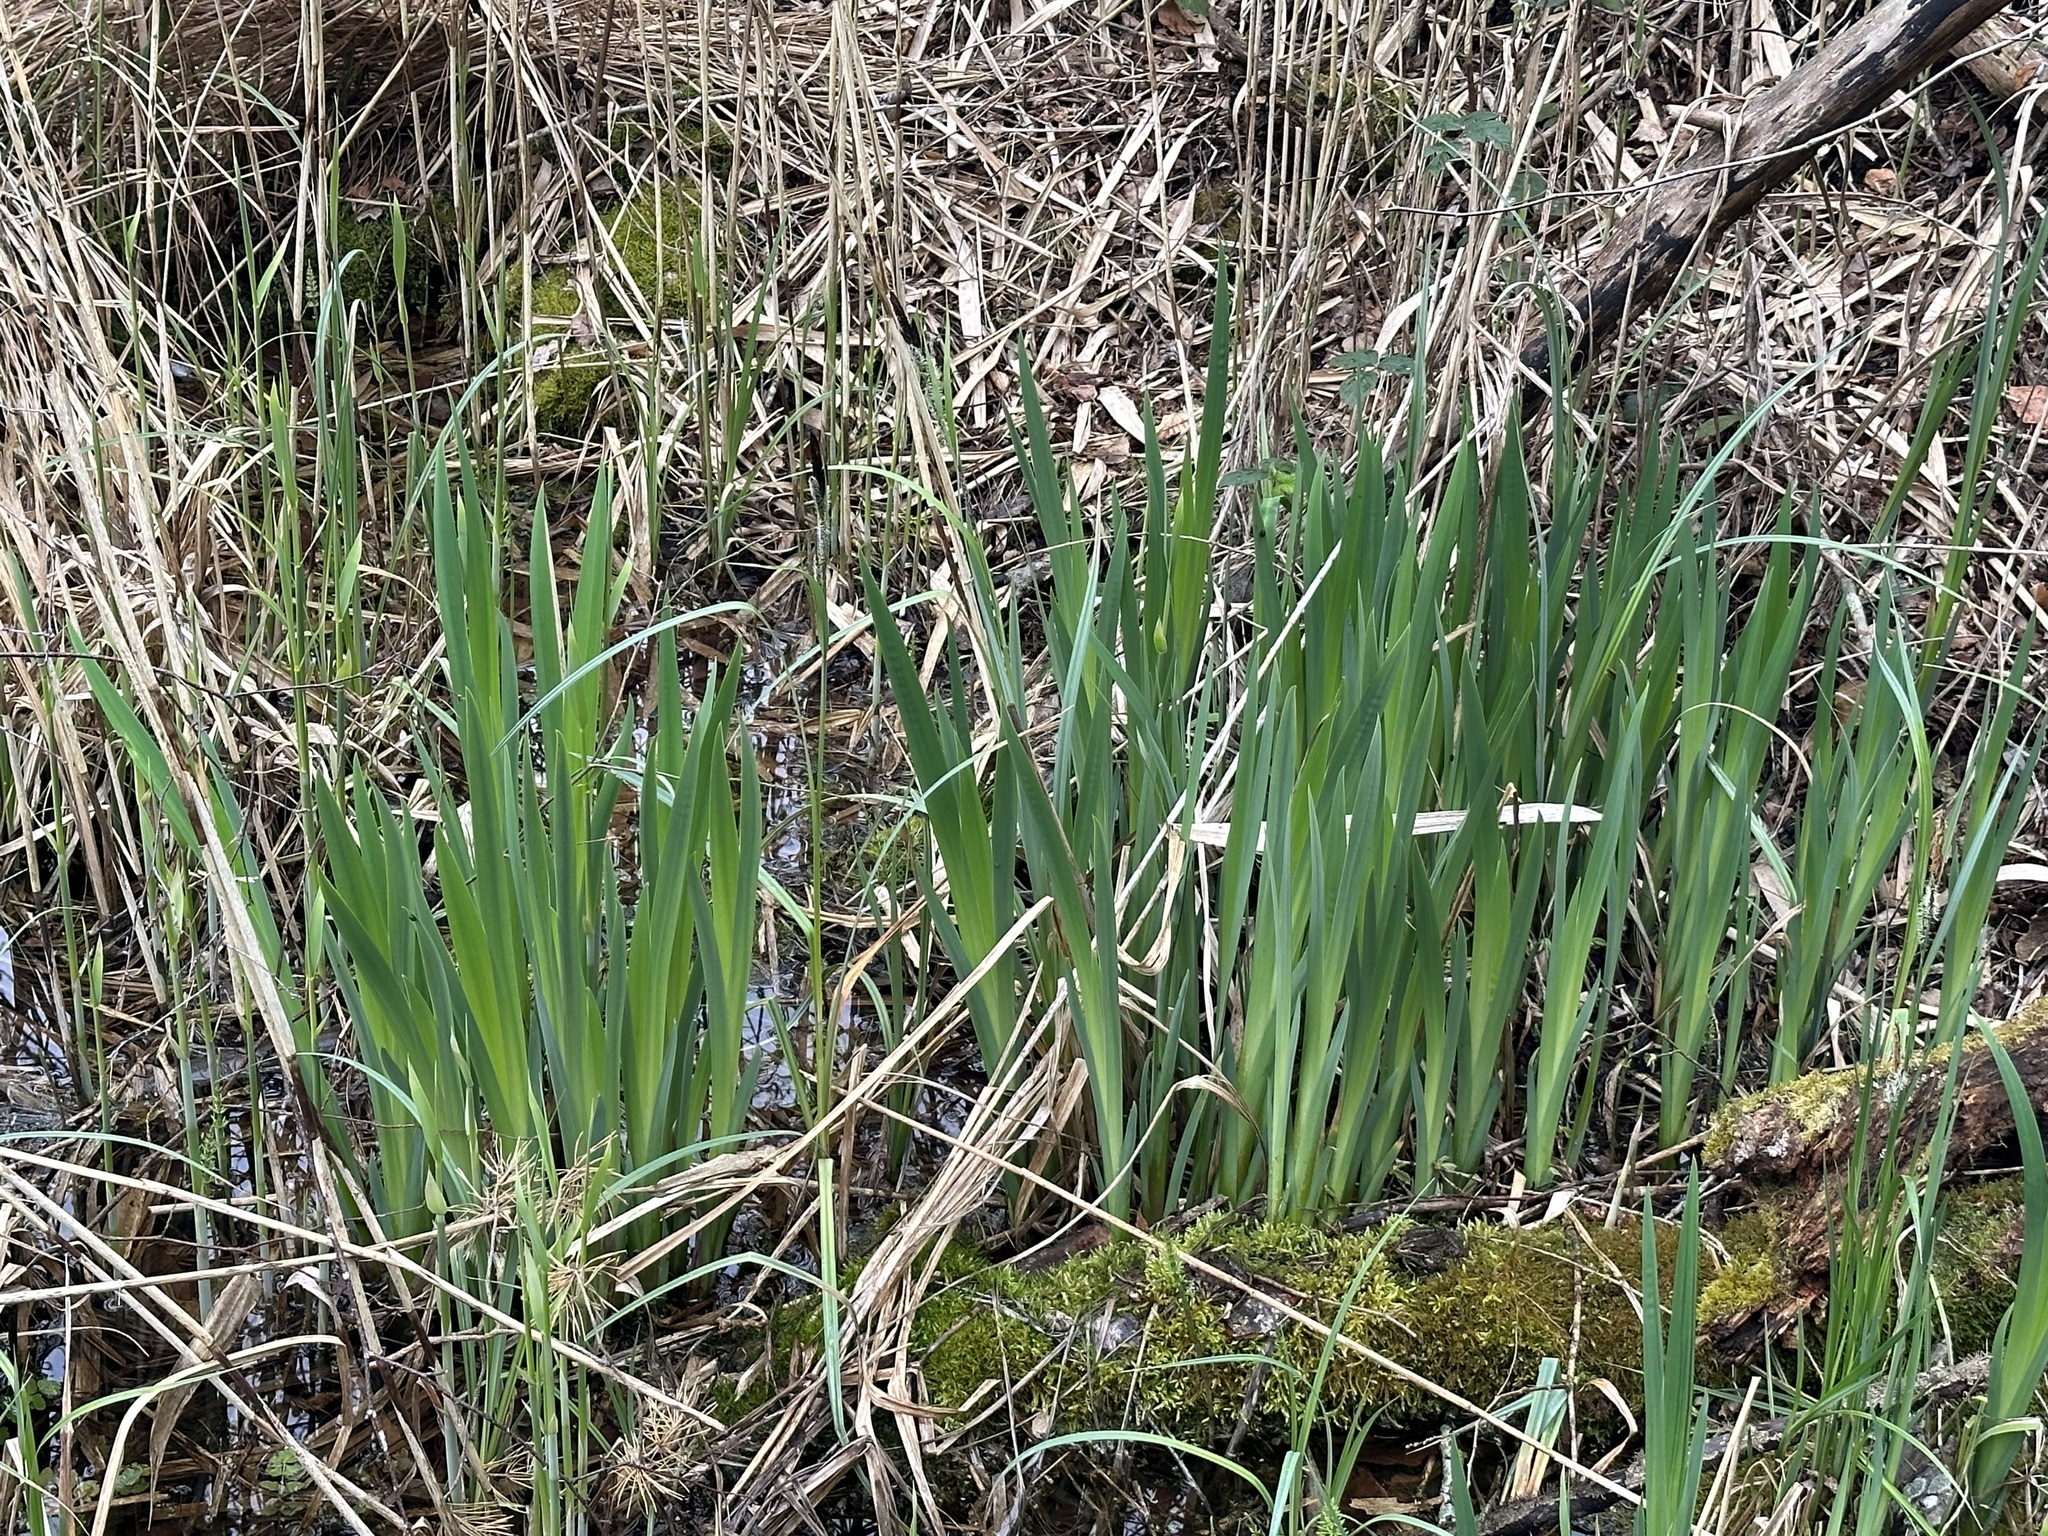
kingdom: Plantae
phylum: Tracheophyta
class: Liliopsida
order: Asparagales
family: Iridaceae
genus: Iris
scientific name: Iris pseudacorus
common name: Yellow flag
